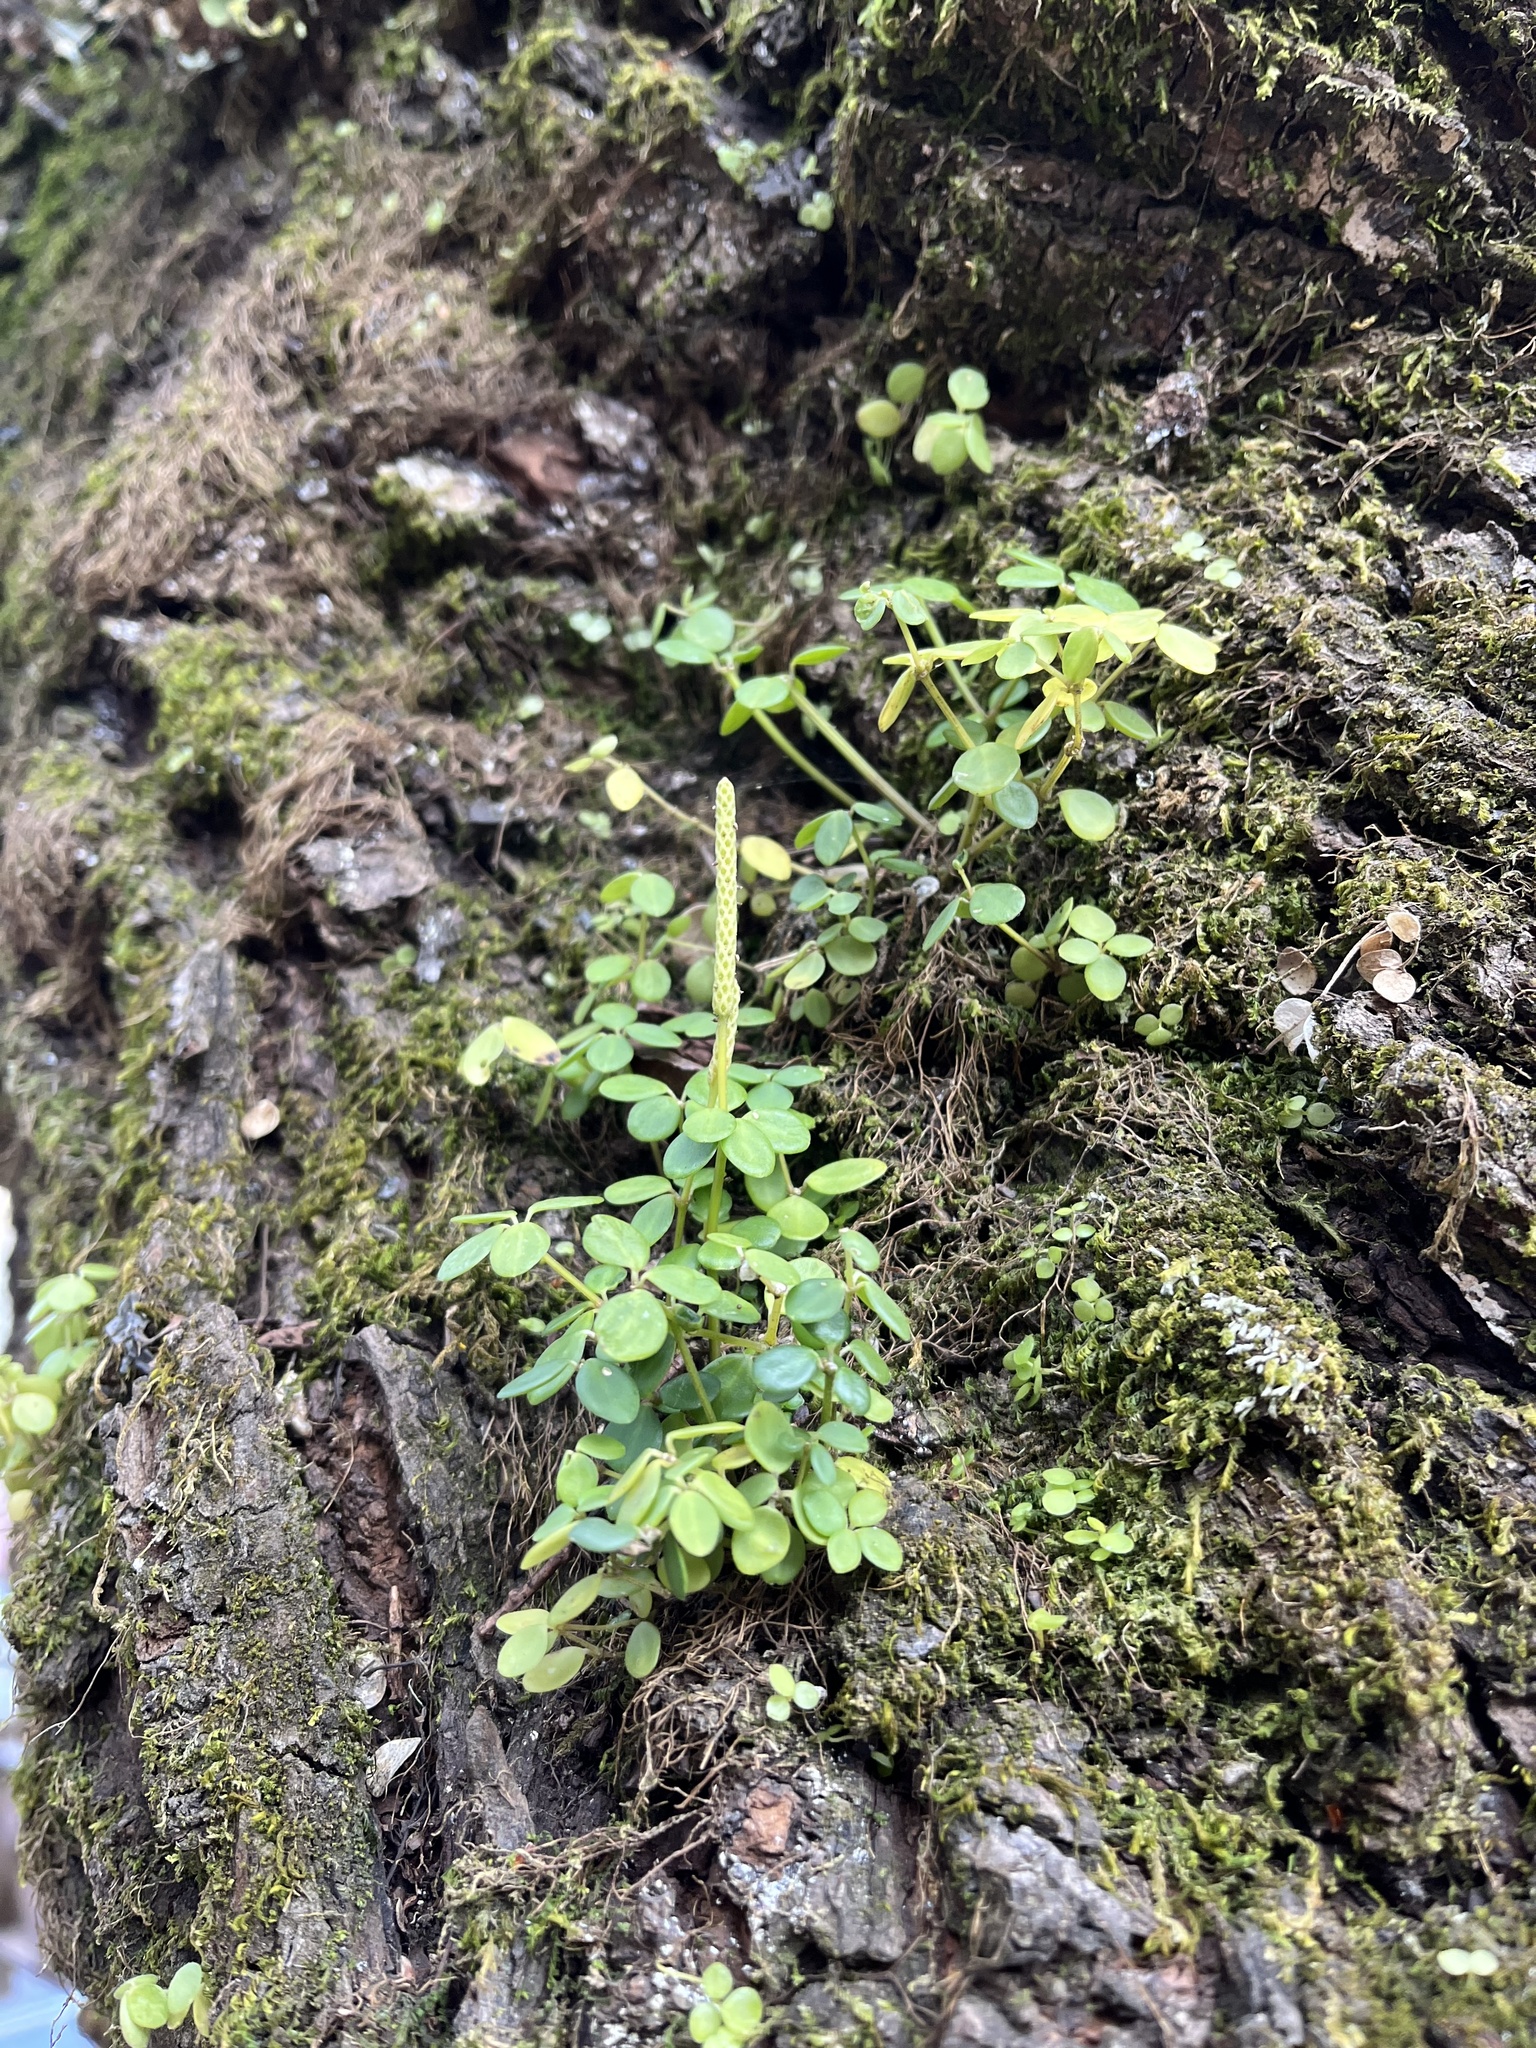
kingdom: Plantae
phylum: Tracheophyta
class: Magnoliopsida
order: Piperales
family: Piperaceae
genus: Peperomia
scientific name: Peperomia tetraphylla
